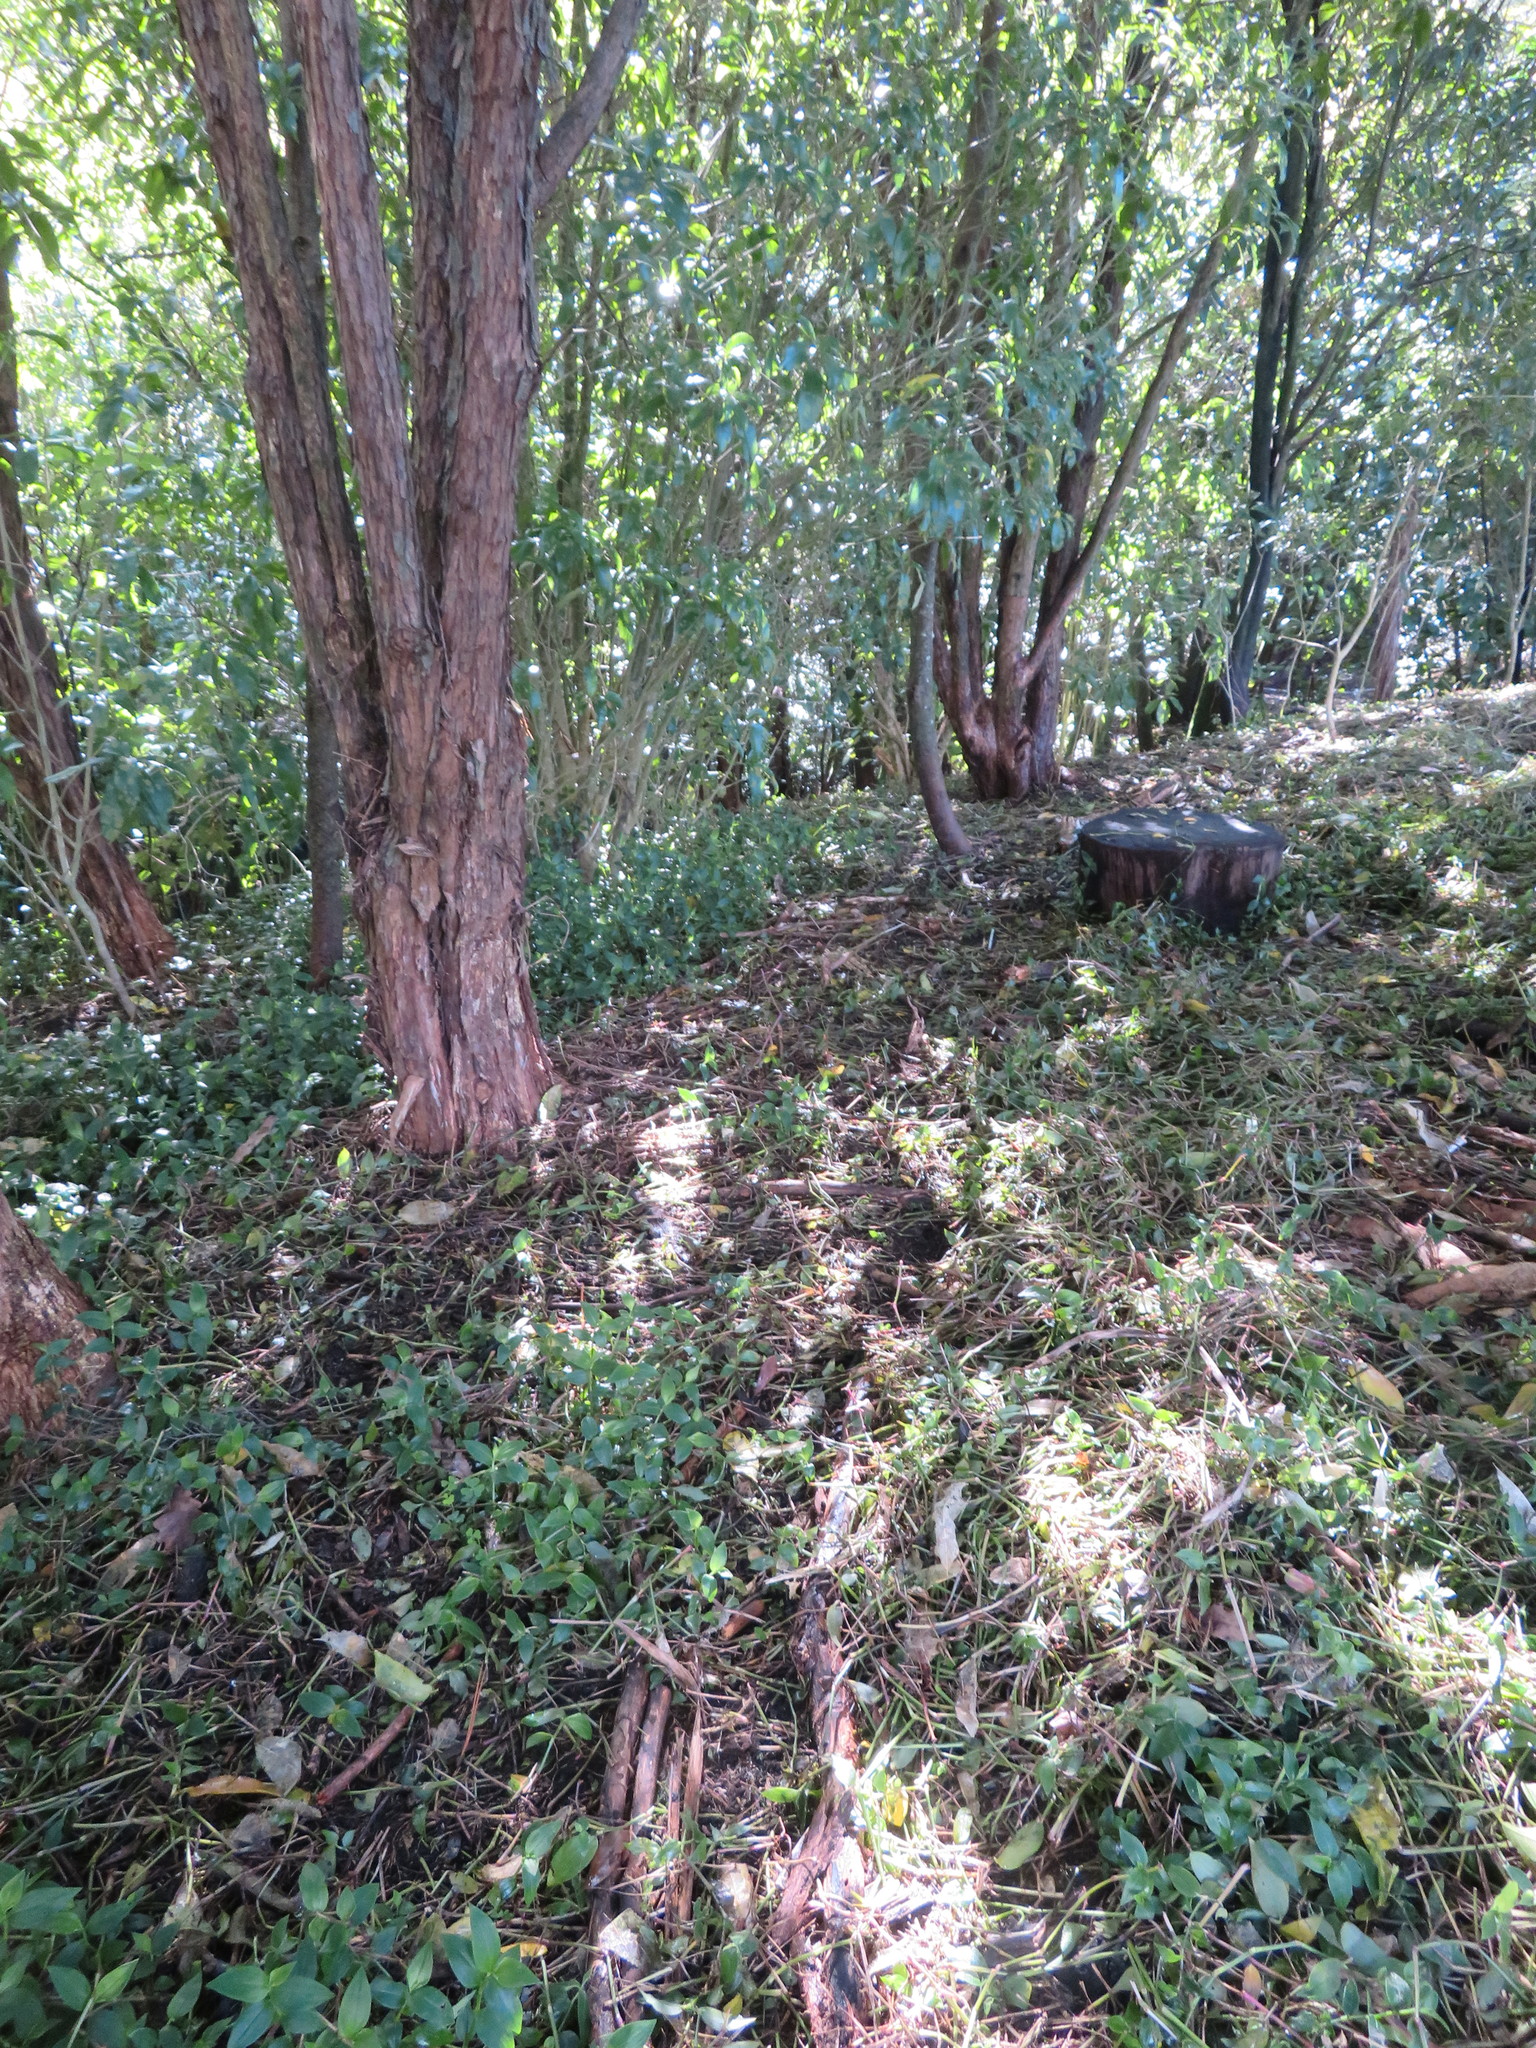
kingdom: Plantae
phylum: Tracheophyta
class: Liliopsida
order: Commelinales
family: Commelinaceae
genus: Tradescantia
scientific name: Tradescantia fluminensis
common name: Wandering-jew
